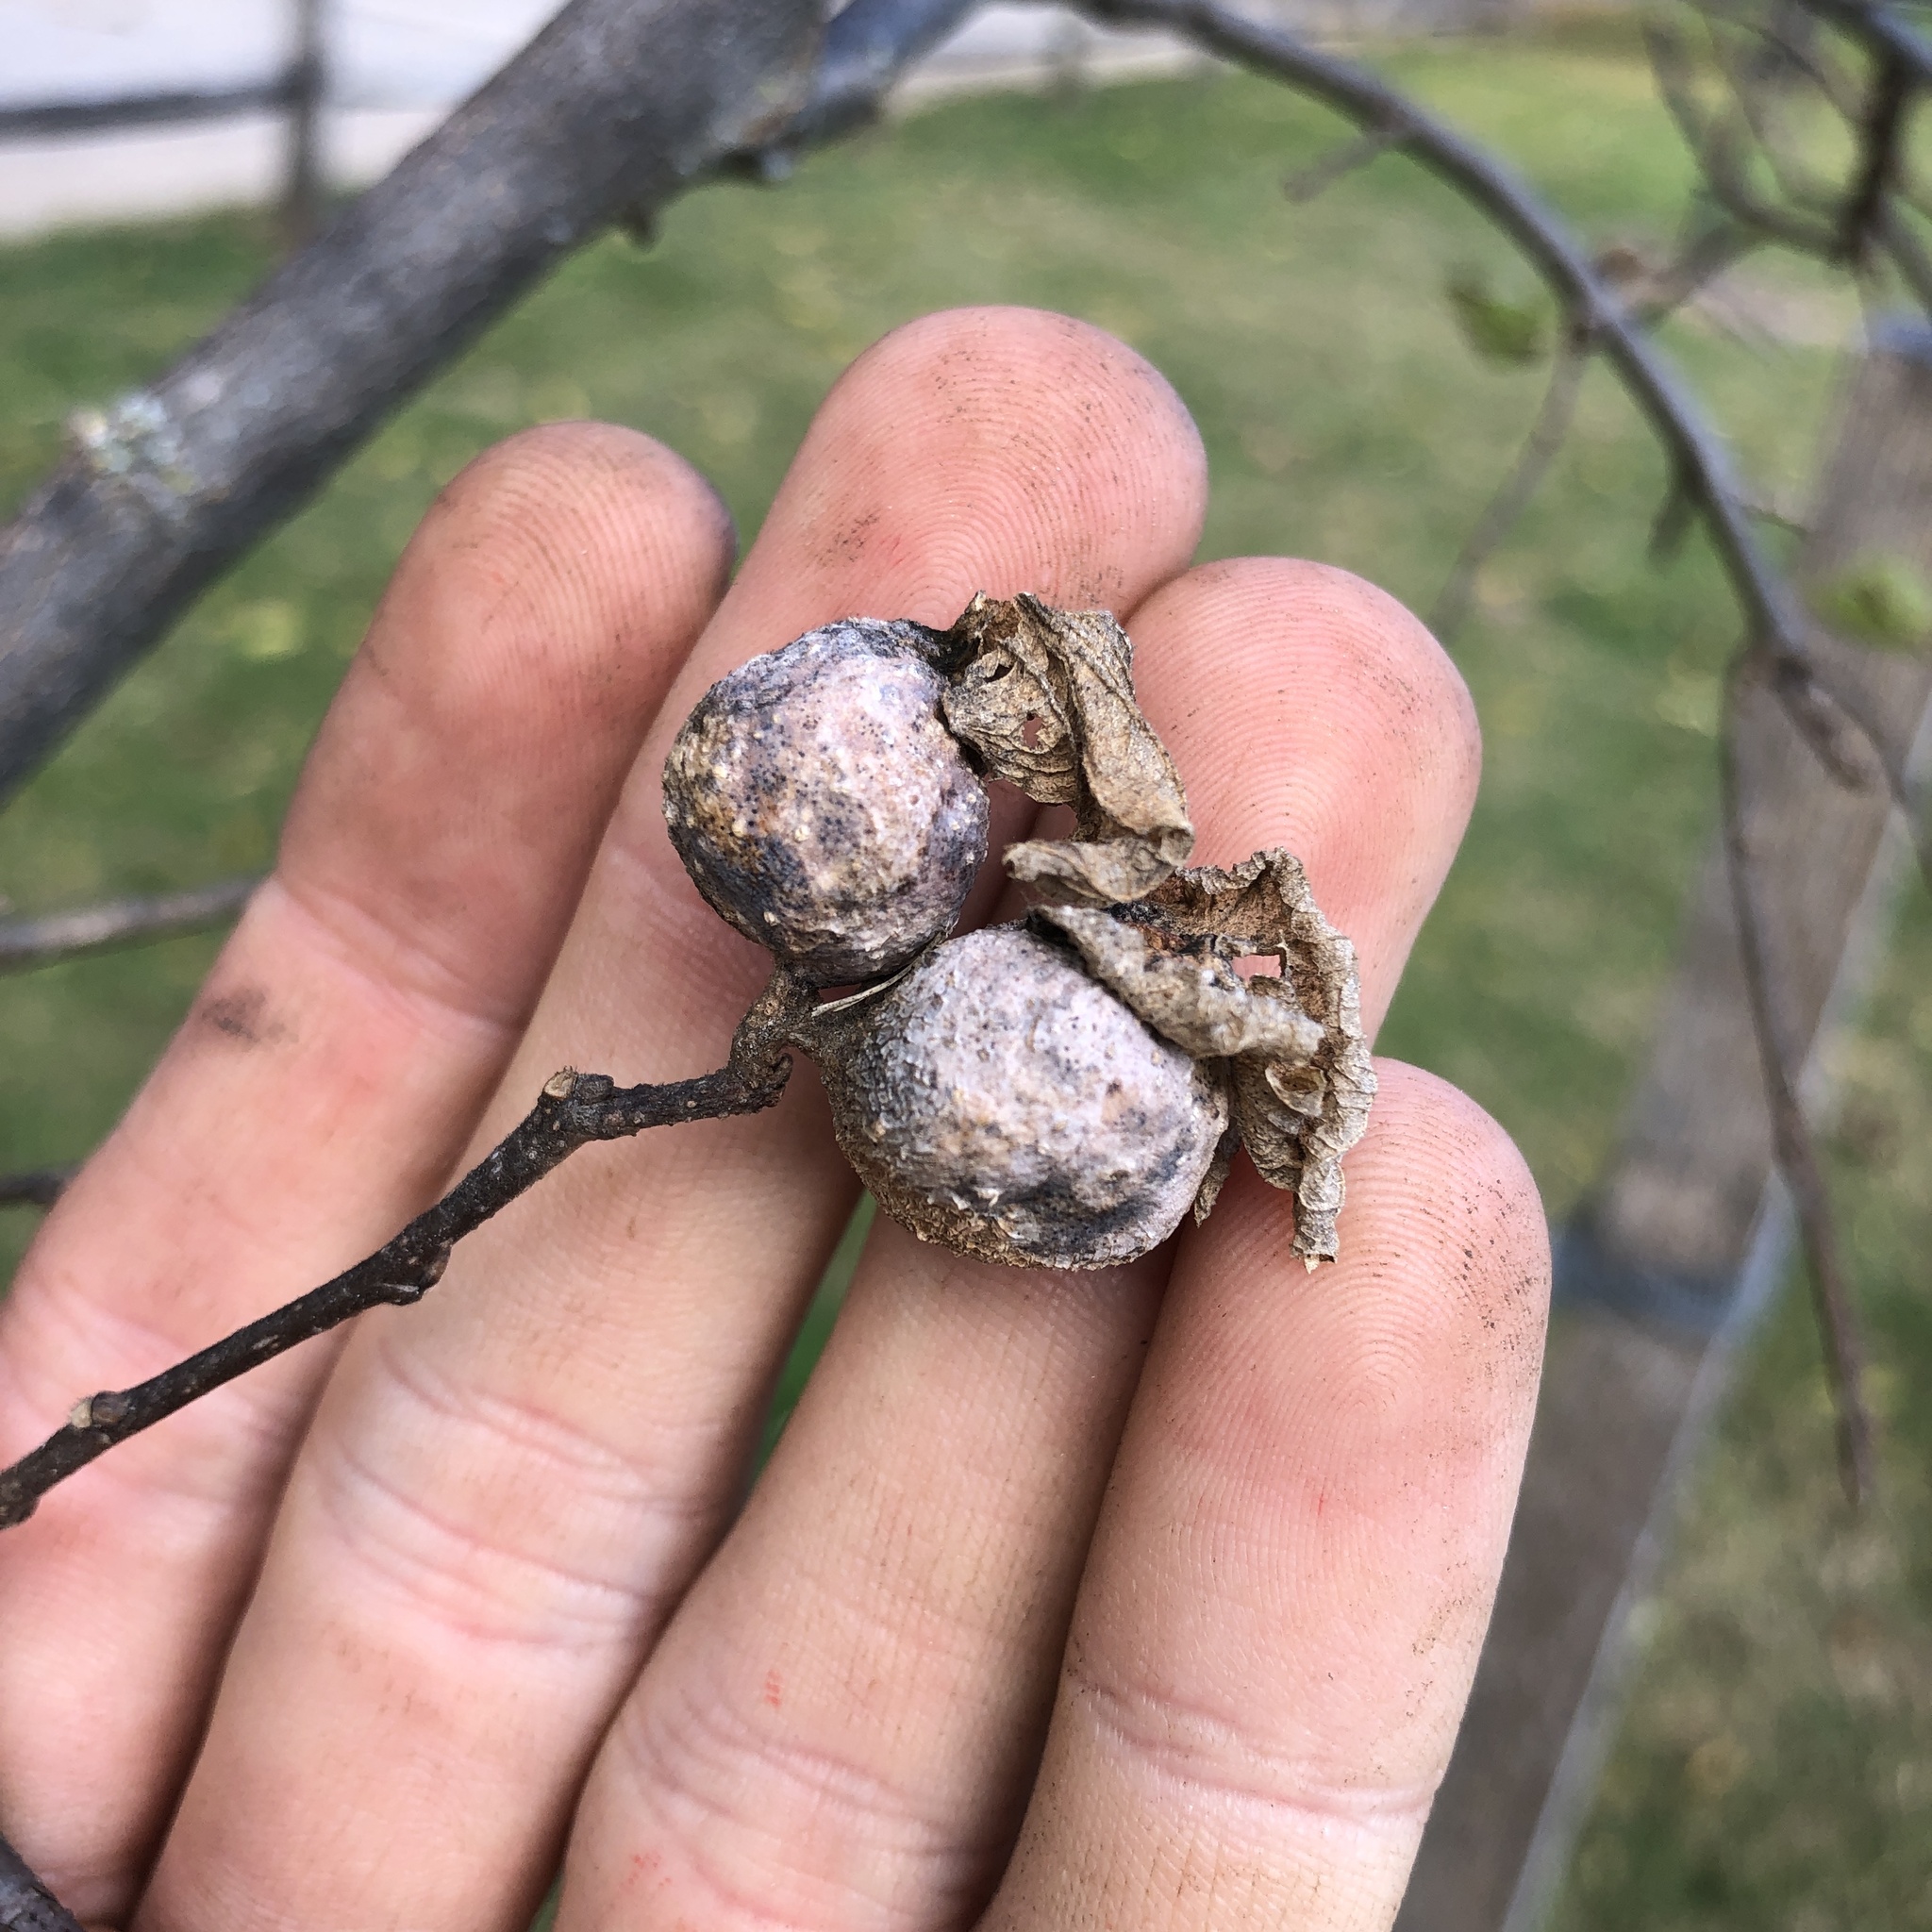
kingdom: Animalia
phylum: Arthropoda
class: Insecta
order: Hemiptera
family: Aphalaridae
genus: Pachypsylla
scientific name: Pachypsylla venusta
